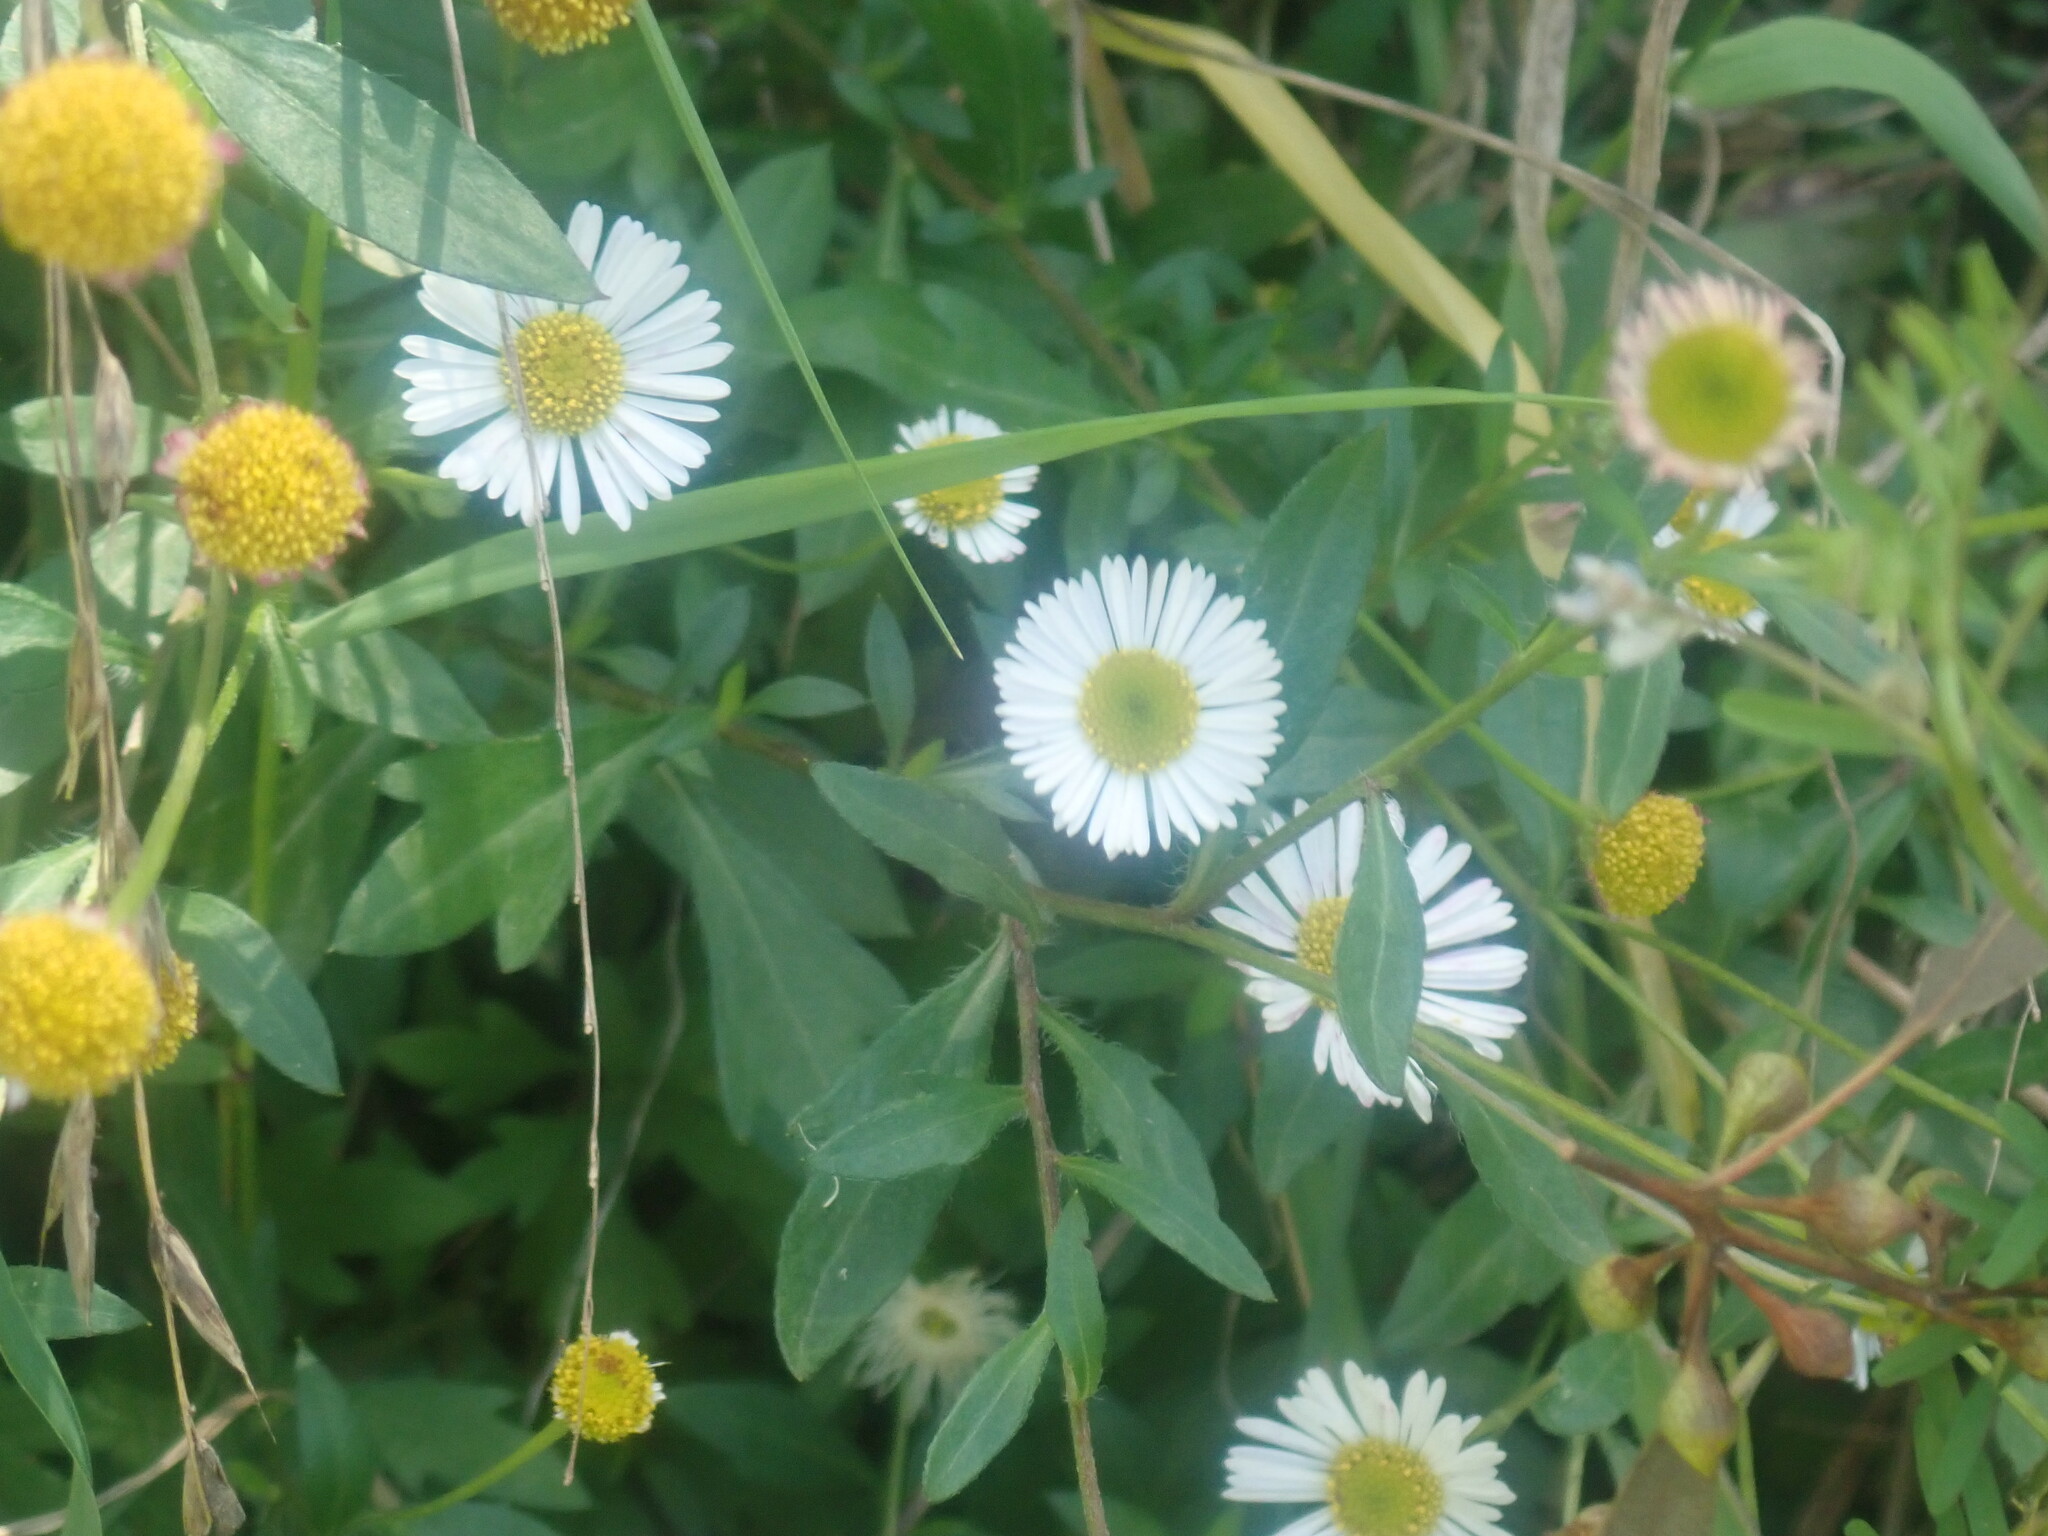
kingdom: Plantae
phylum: Tracheophyta
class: Magnoliopsida
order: Asterales
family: Asteraceae
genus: Erigeron
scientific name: Erigeron karvinskianus
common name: Mexican fleabane
